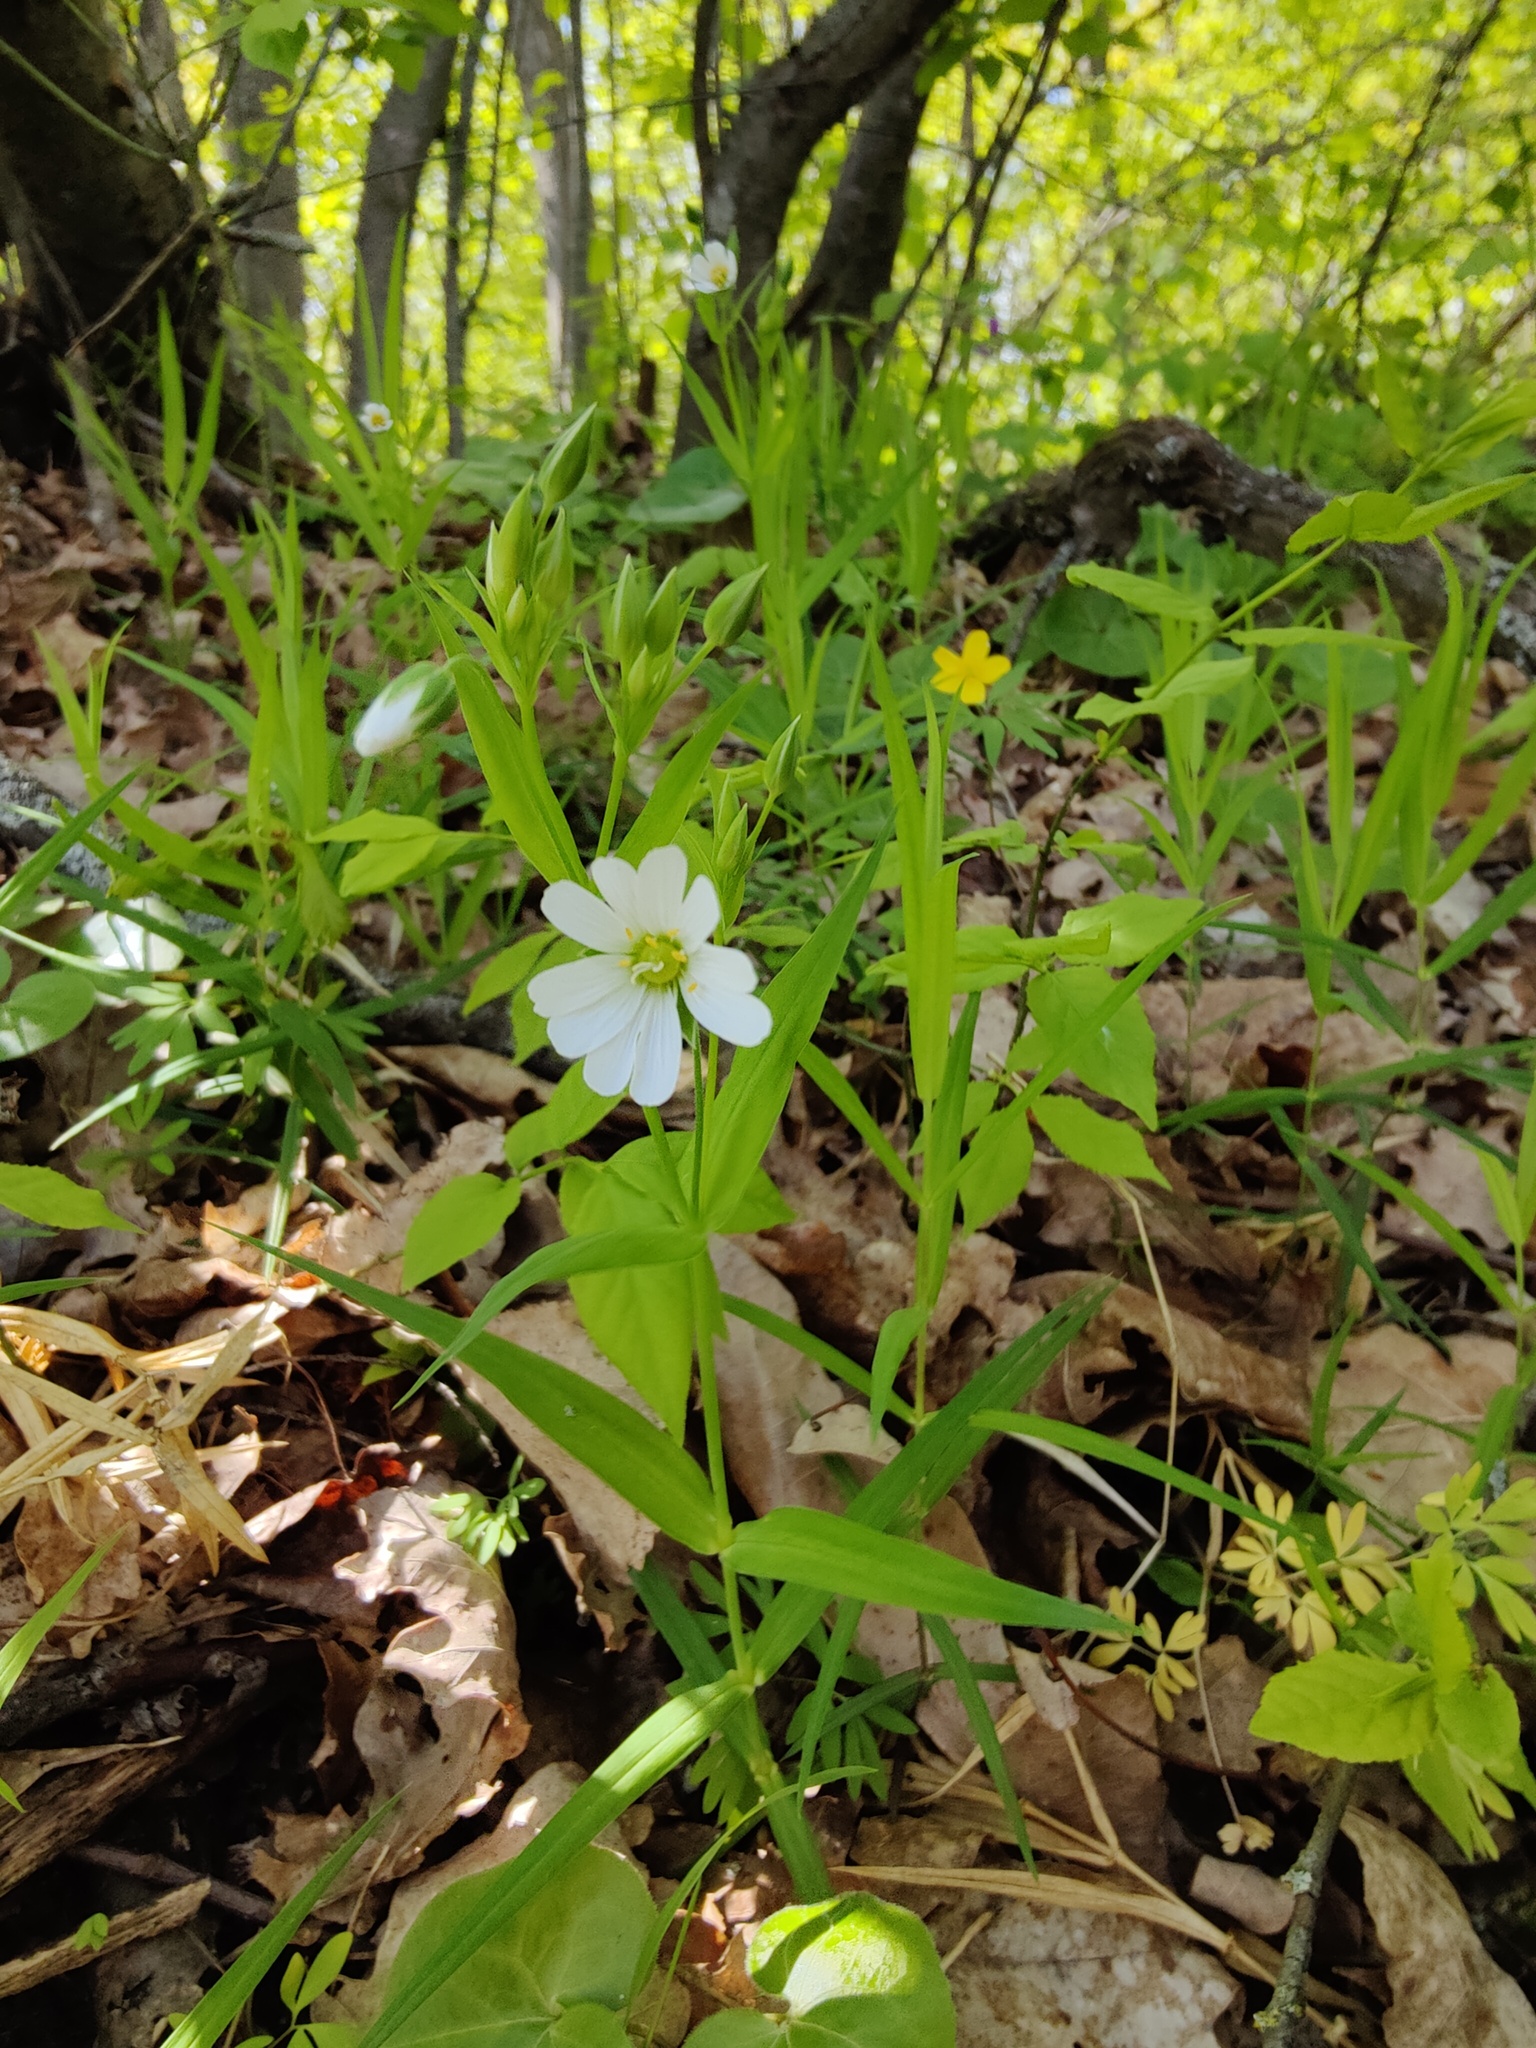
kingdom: Plantae
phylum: Tracheophyta
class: Magnoliopsida
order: Caryophyllales
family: Caryophyllaceae
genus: Rabelera
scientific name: Rabelera holostea
